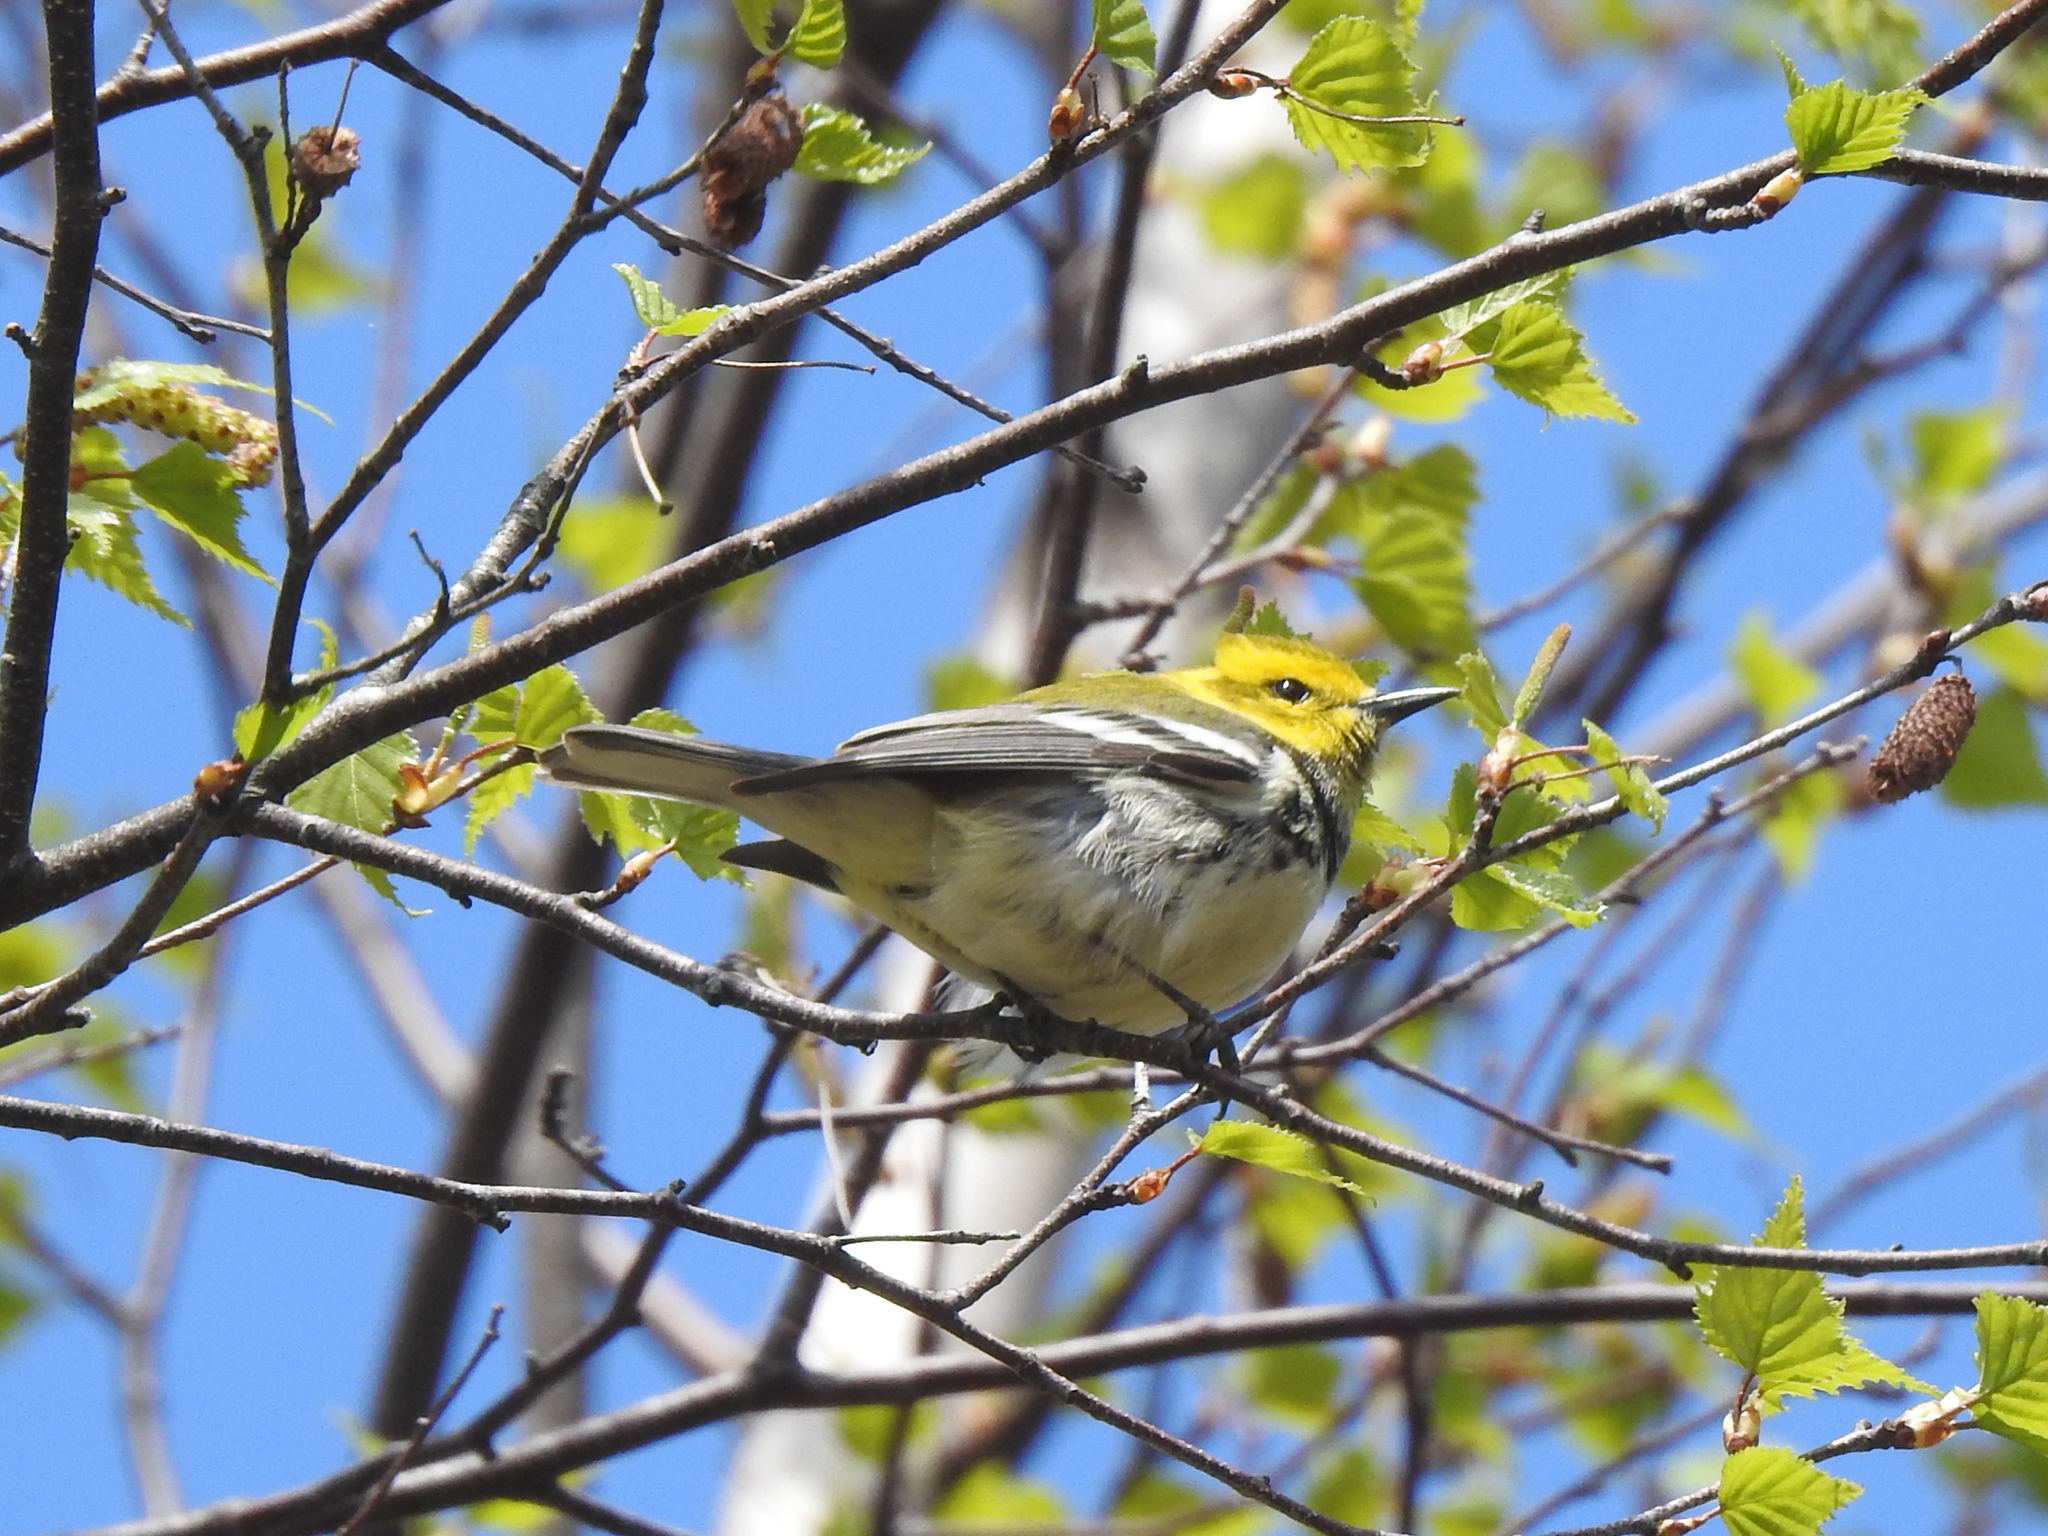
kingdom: Animalia
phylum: Chordata
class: Aves
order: Passeriformes
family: Parulidae
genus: Setophaga
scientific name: Setophaga virens
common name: Black-throated green warbler
